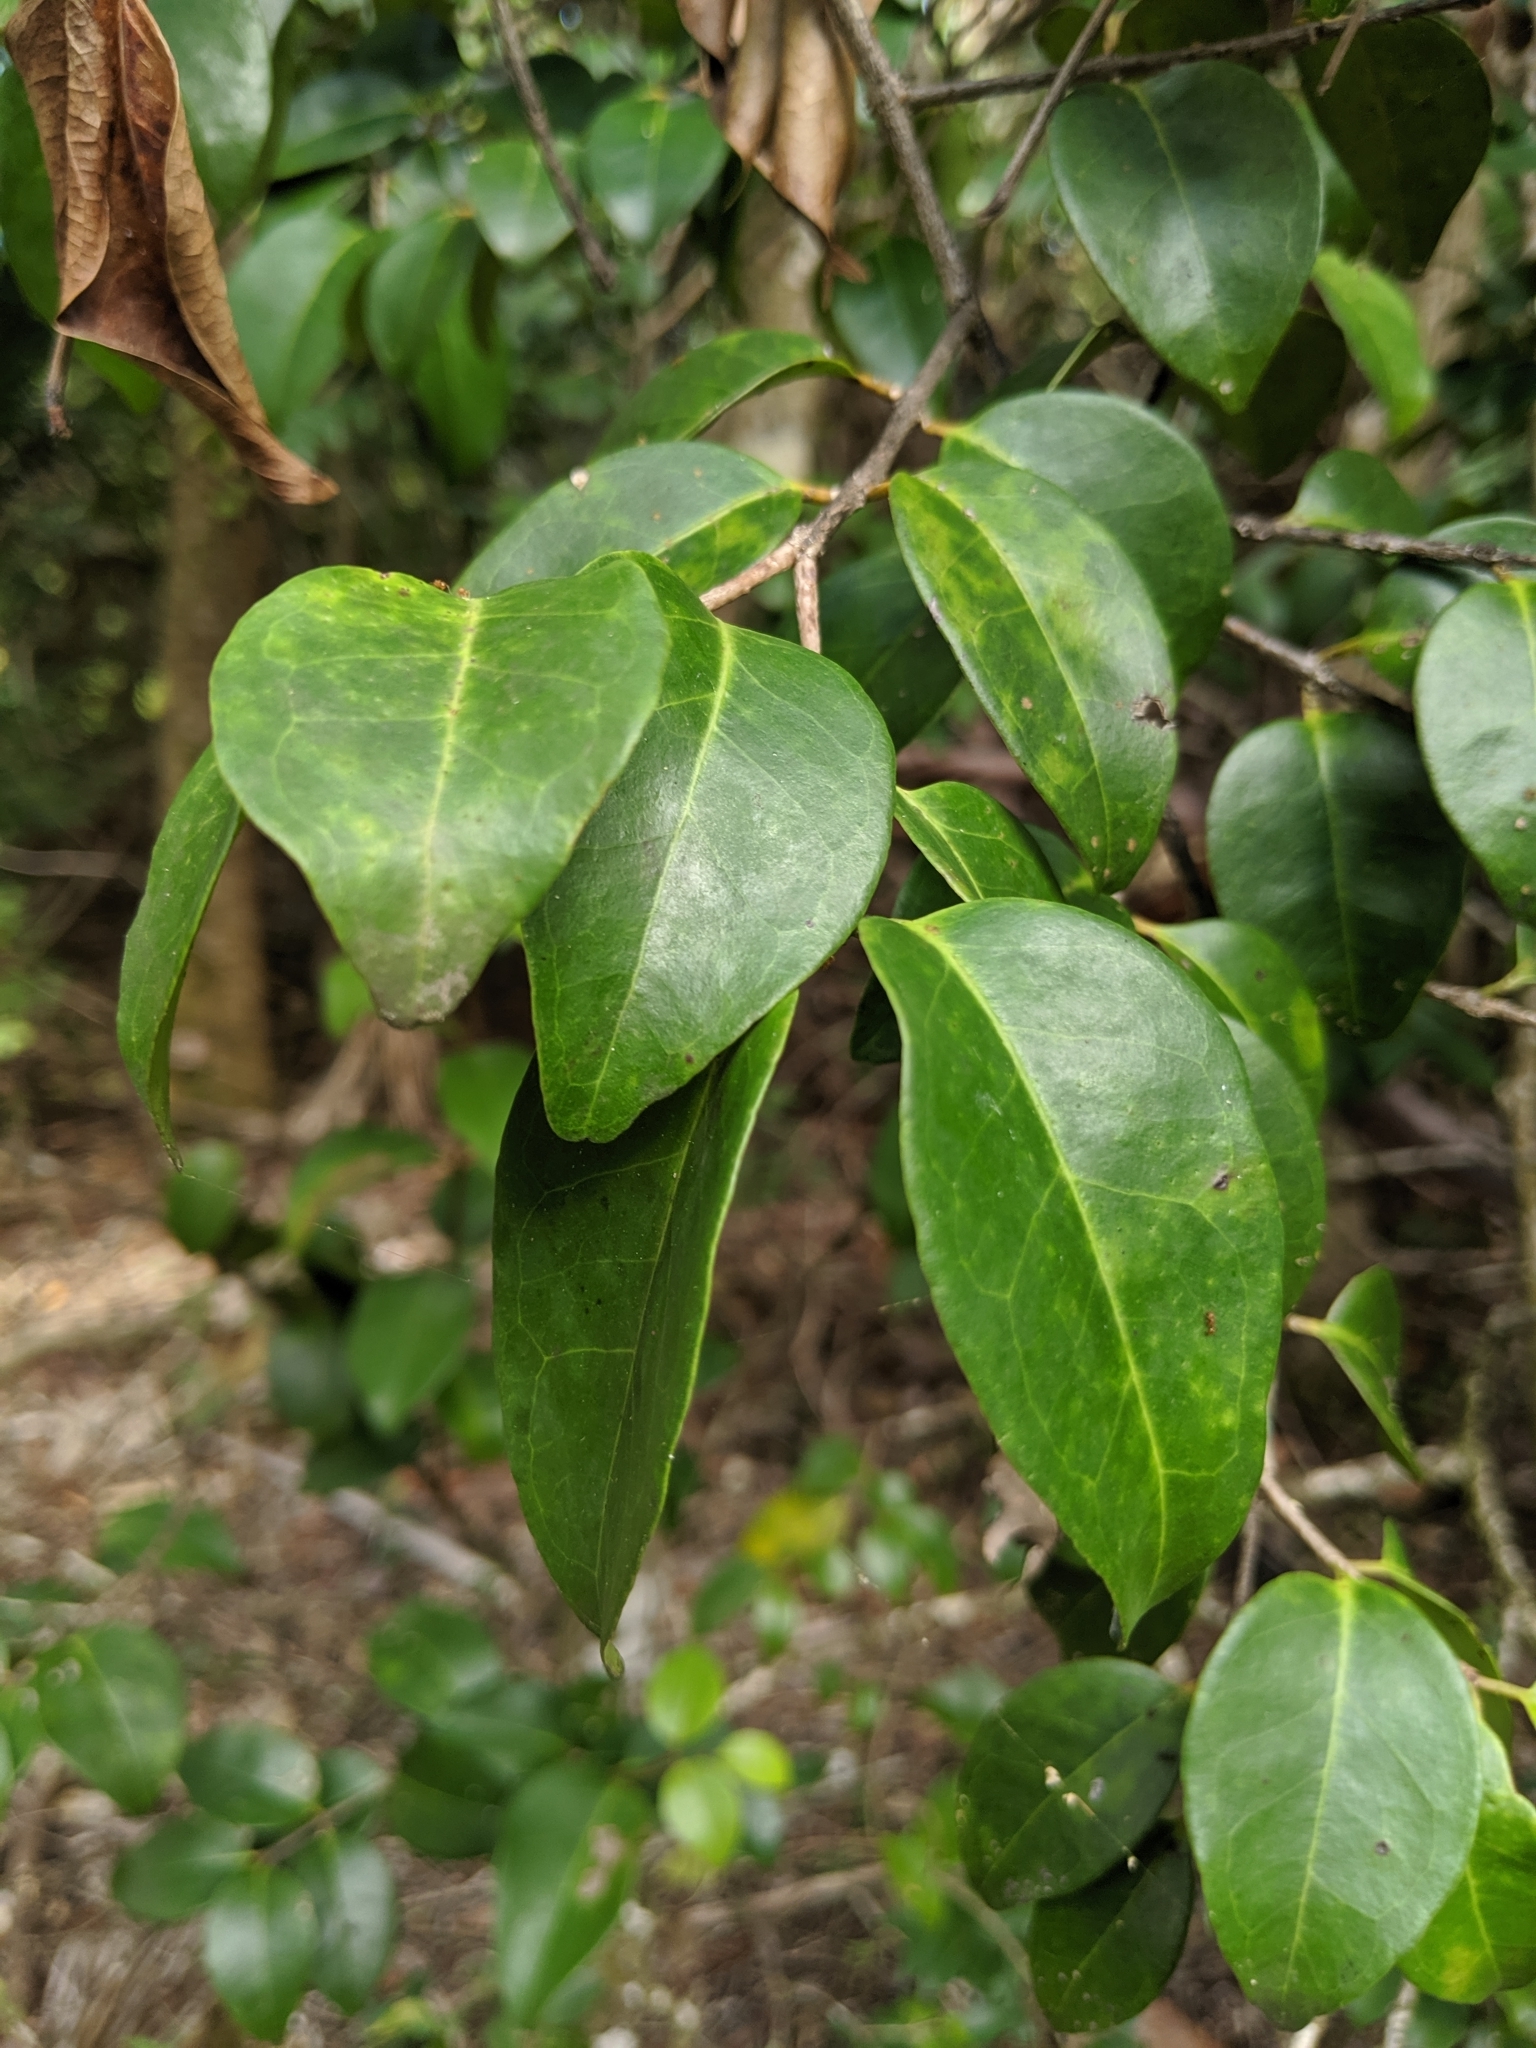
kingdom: Plantae
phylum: Tracheophyta
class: Magnoliopsida
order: Myrtales
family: Myrtaceae
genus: Eugenia
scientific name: Eugenia axillaris
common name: Choaky berry
